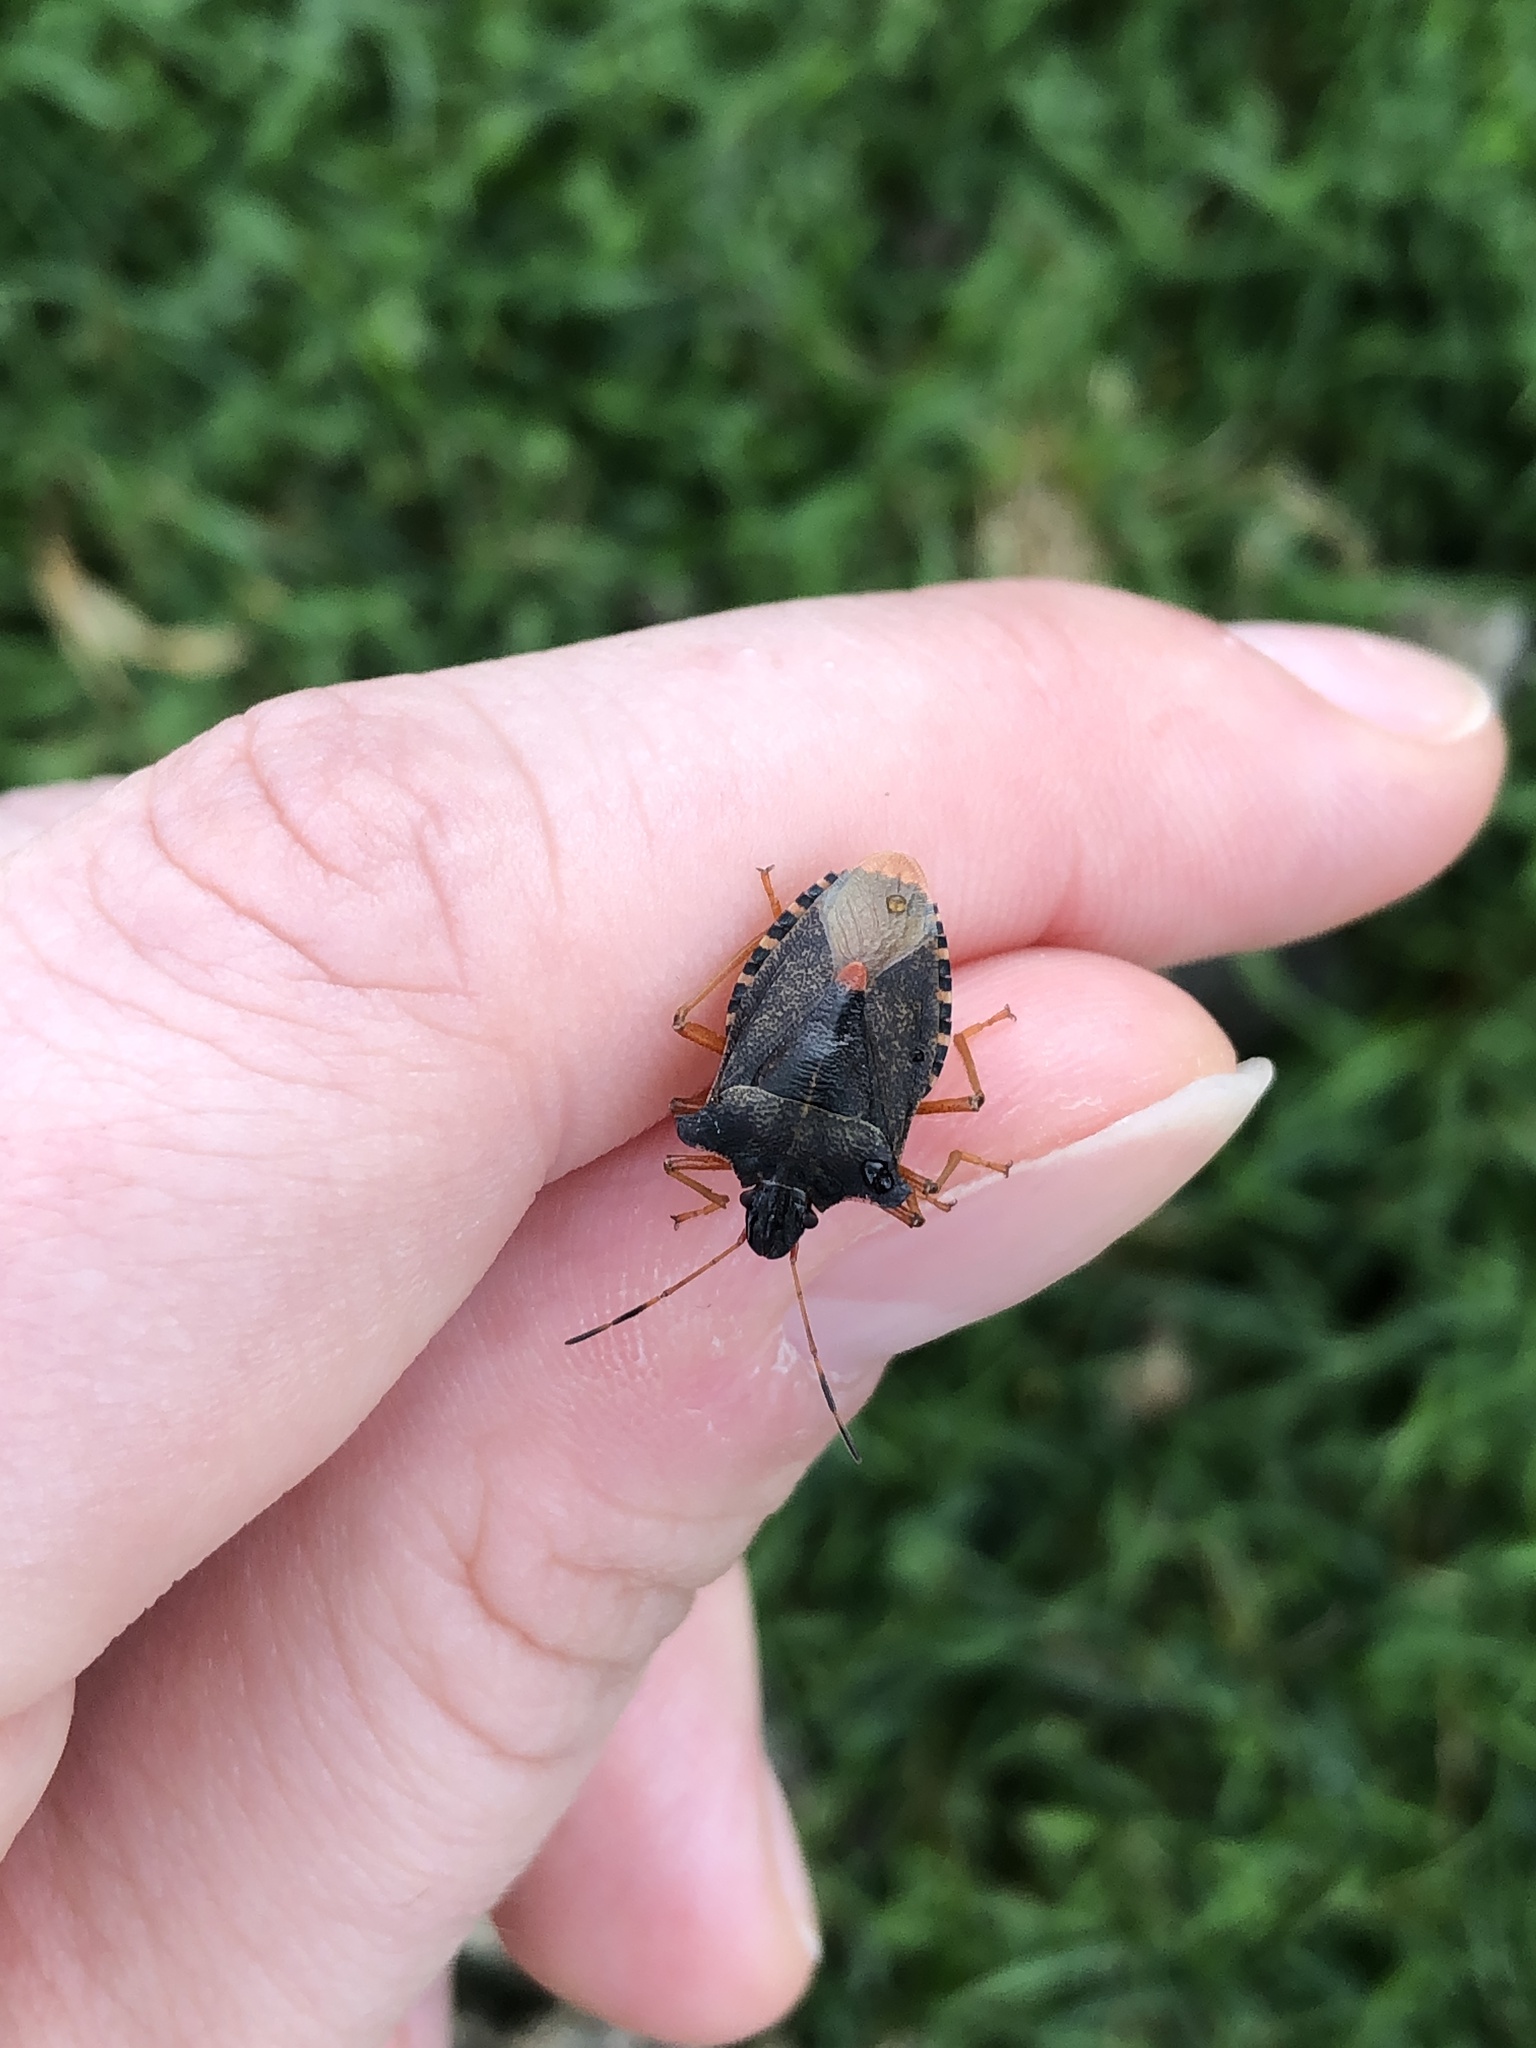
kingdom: Animalia
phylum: Arthropoda
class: Insecta
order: Hemiptera
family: Pentatomidae
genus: Pentatoma
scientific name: Pentatoma rufipes
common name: Forest bug
